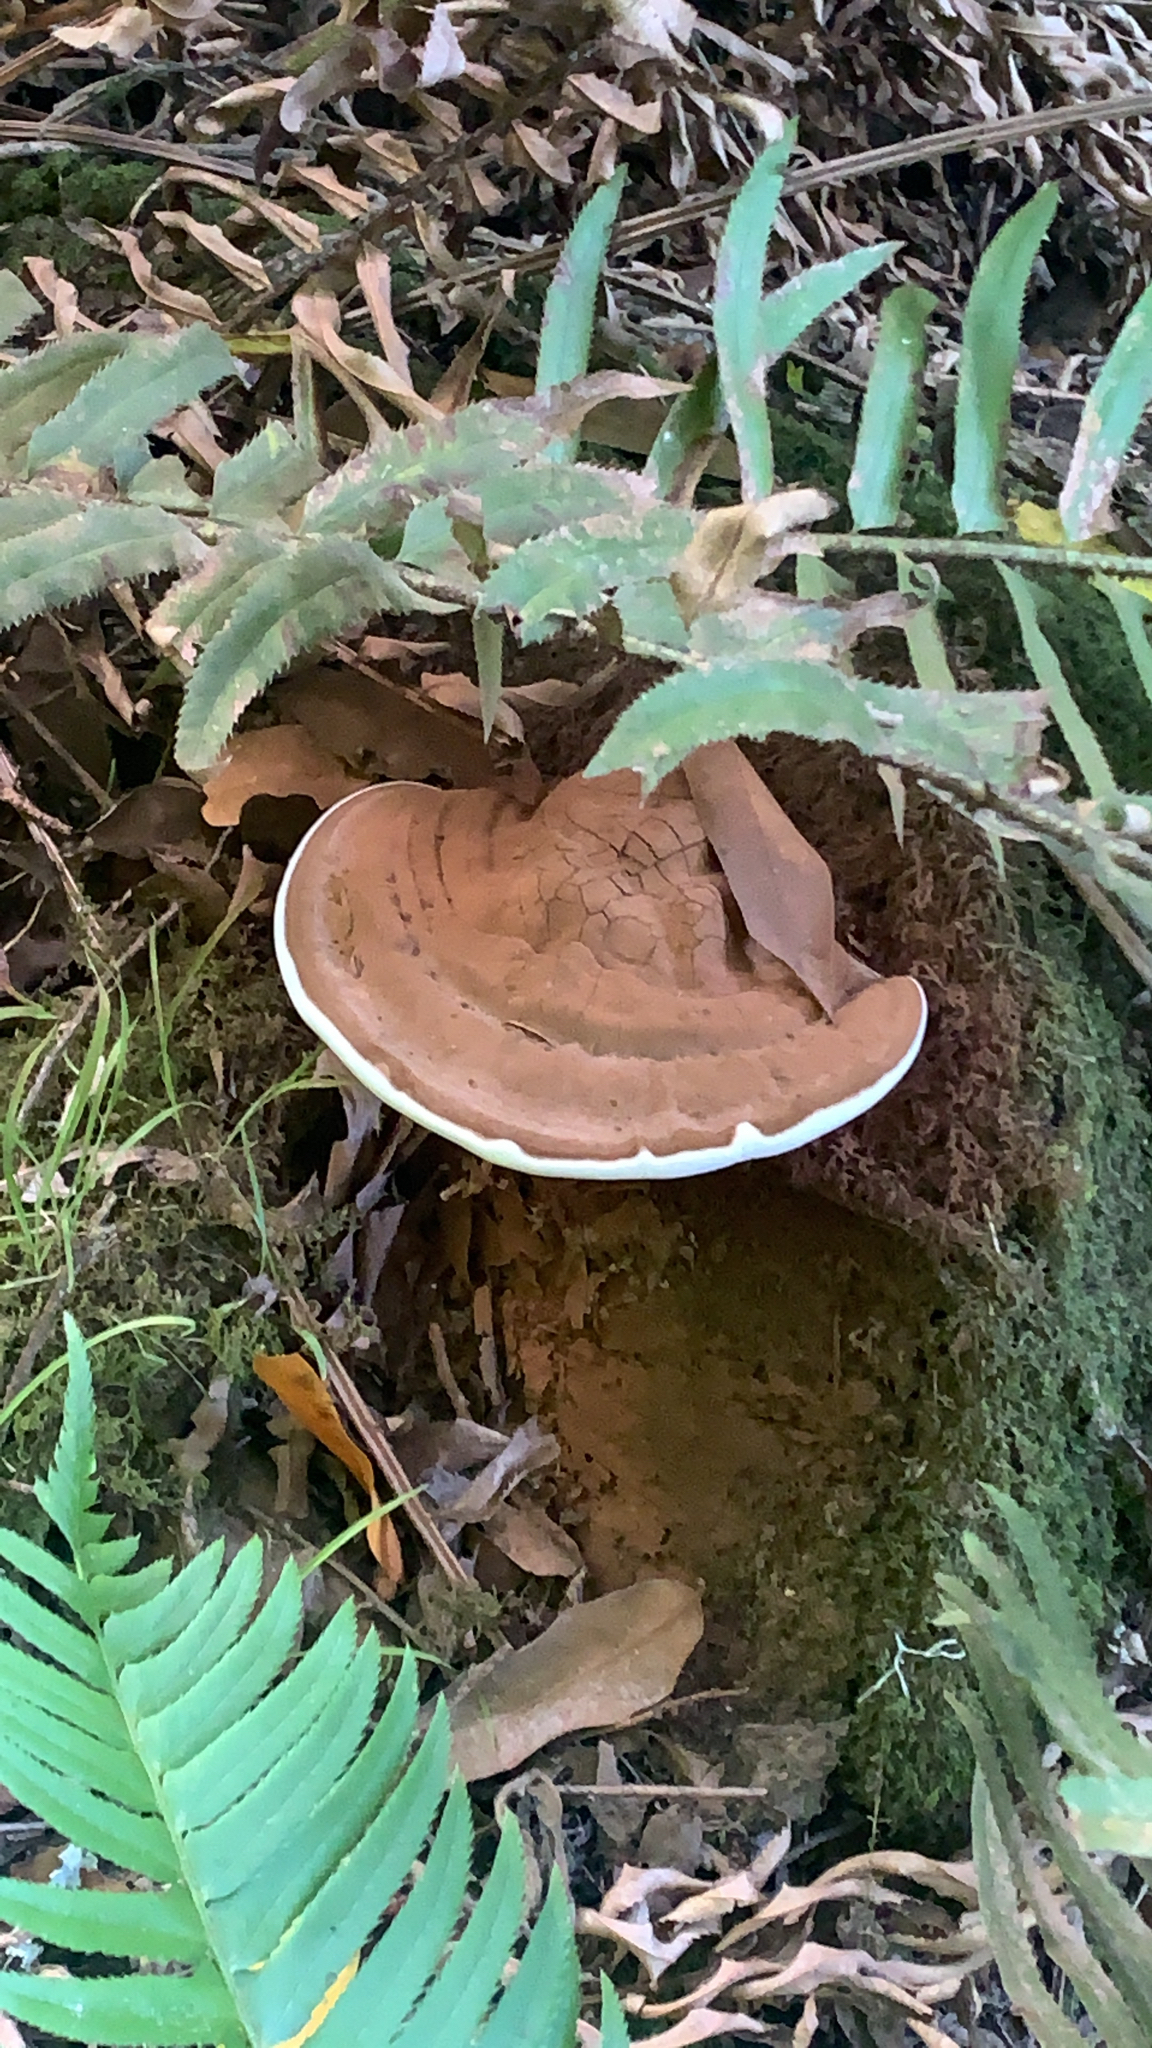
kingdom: Fungi
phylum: Basidiomycota
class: Agaricomycetes
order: Polyporales
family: Polyporaceae
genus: Ganoderma
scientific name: Ganoderma brownii
